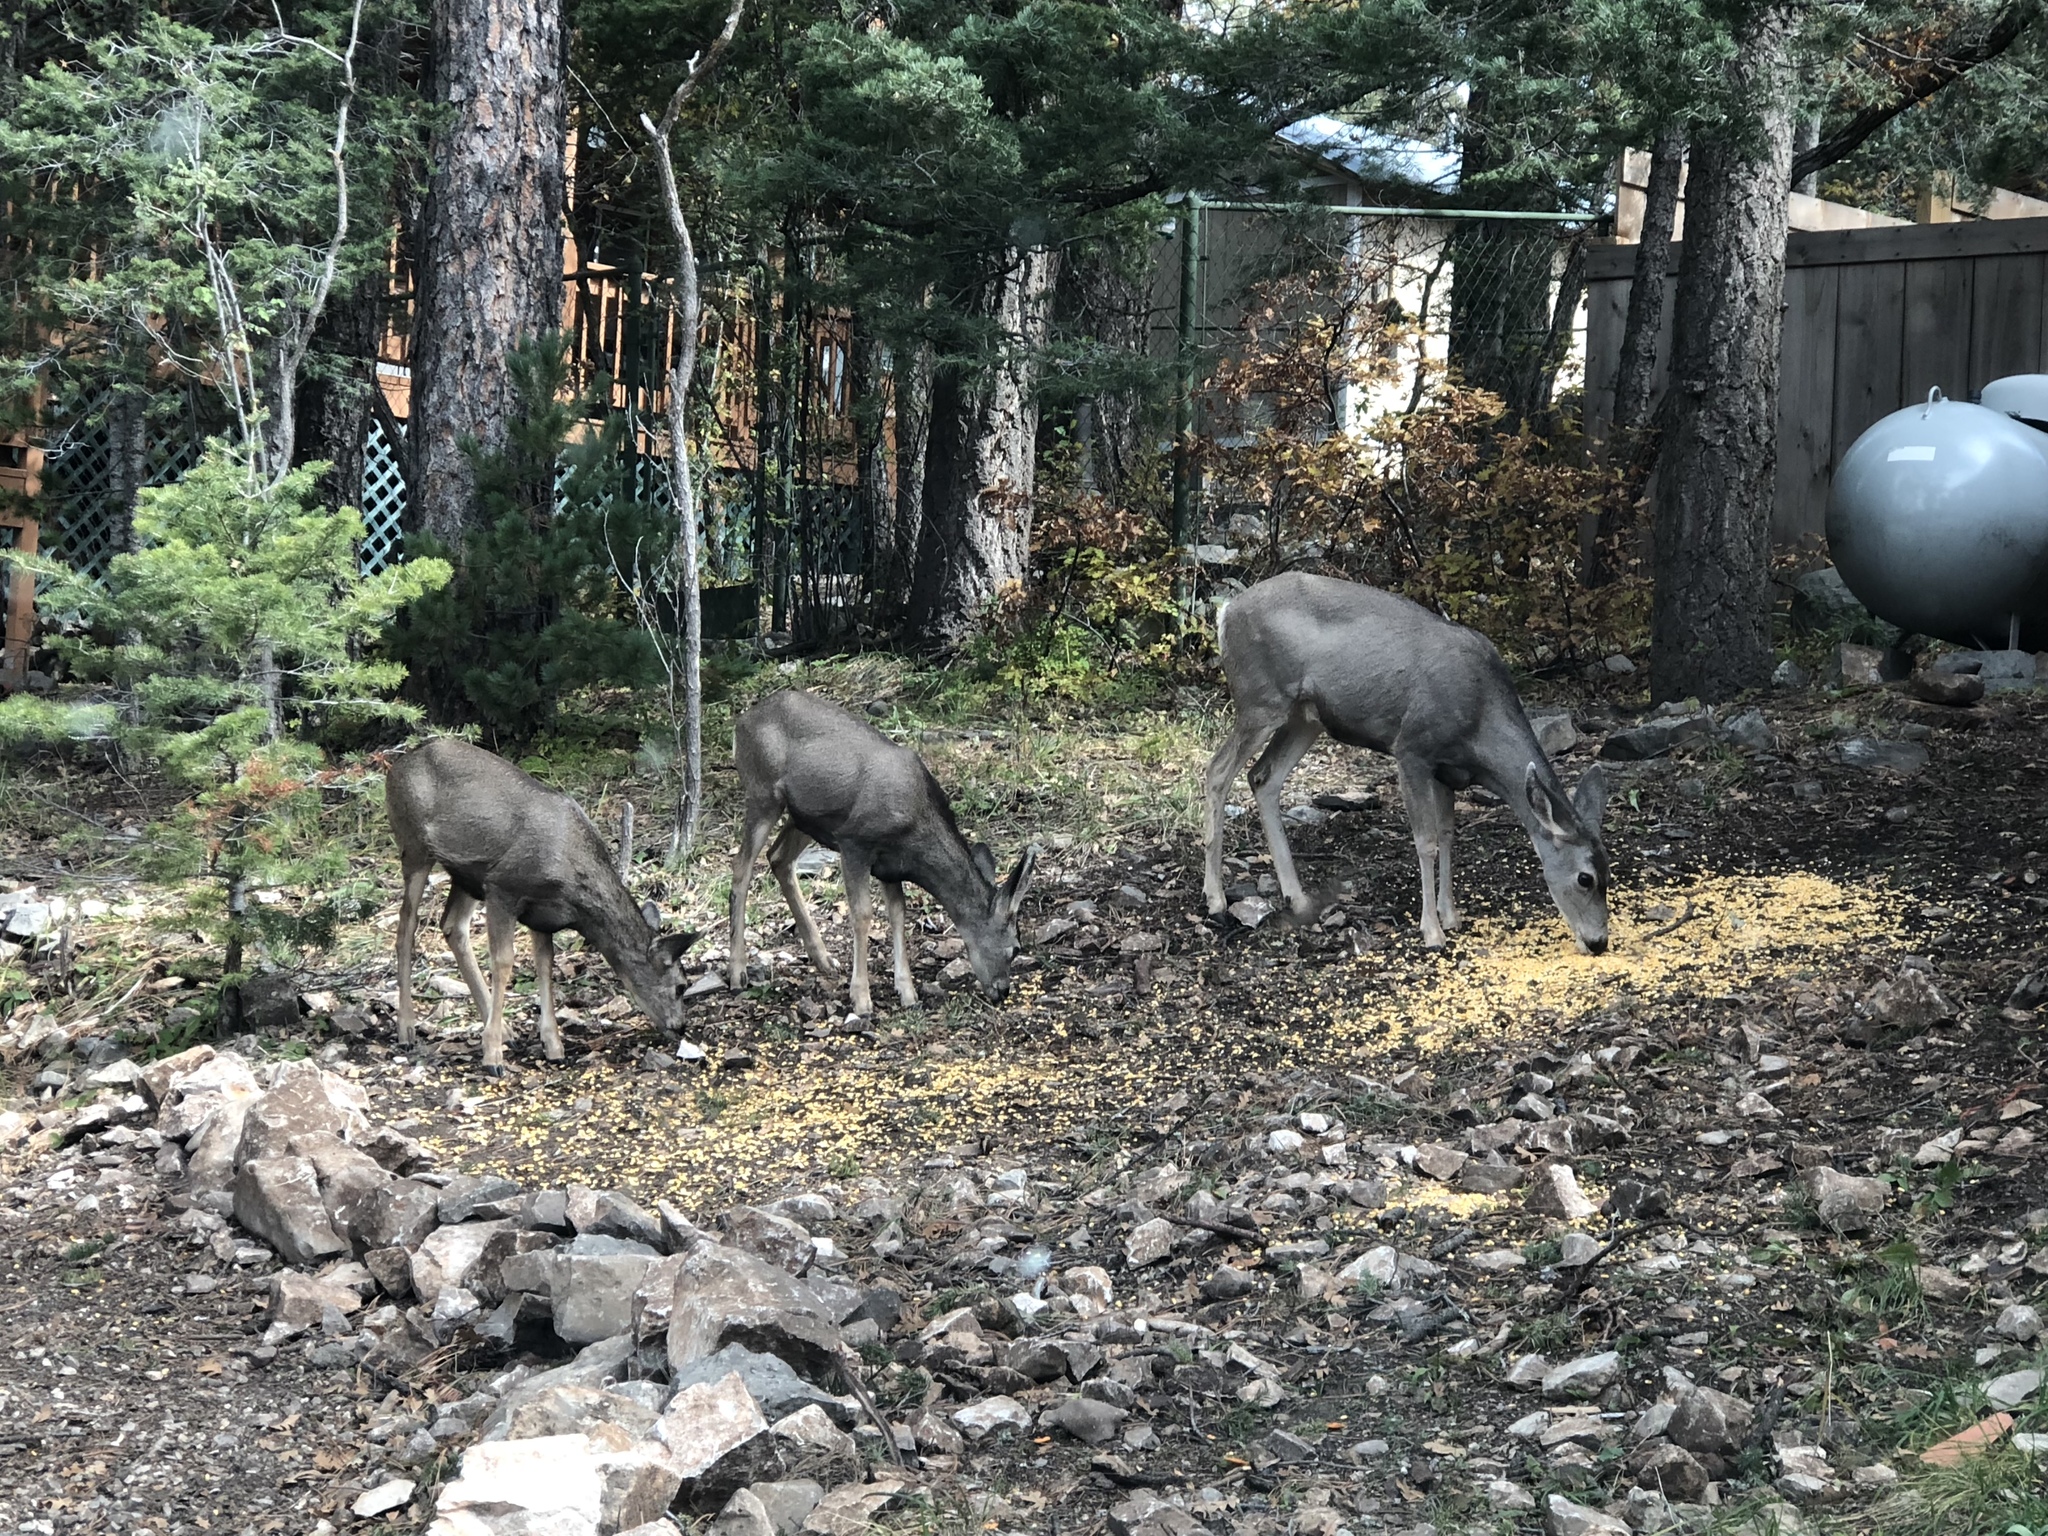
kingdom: Animalia
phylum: Chordata
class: Mammalia
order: Artiodactyla
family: Cervidae
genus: Odocoileus
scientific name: Odocoileus hemionus
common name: Mule deer
